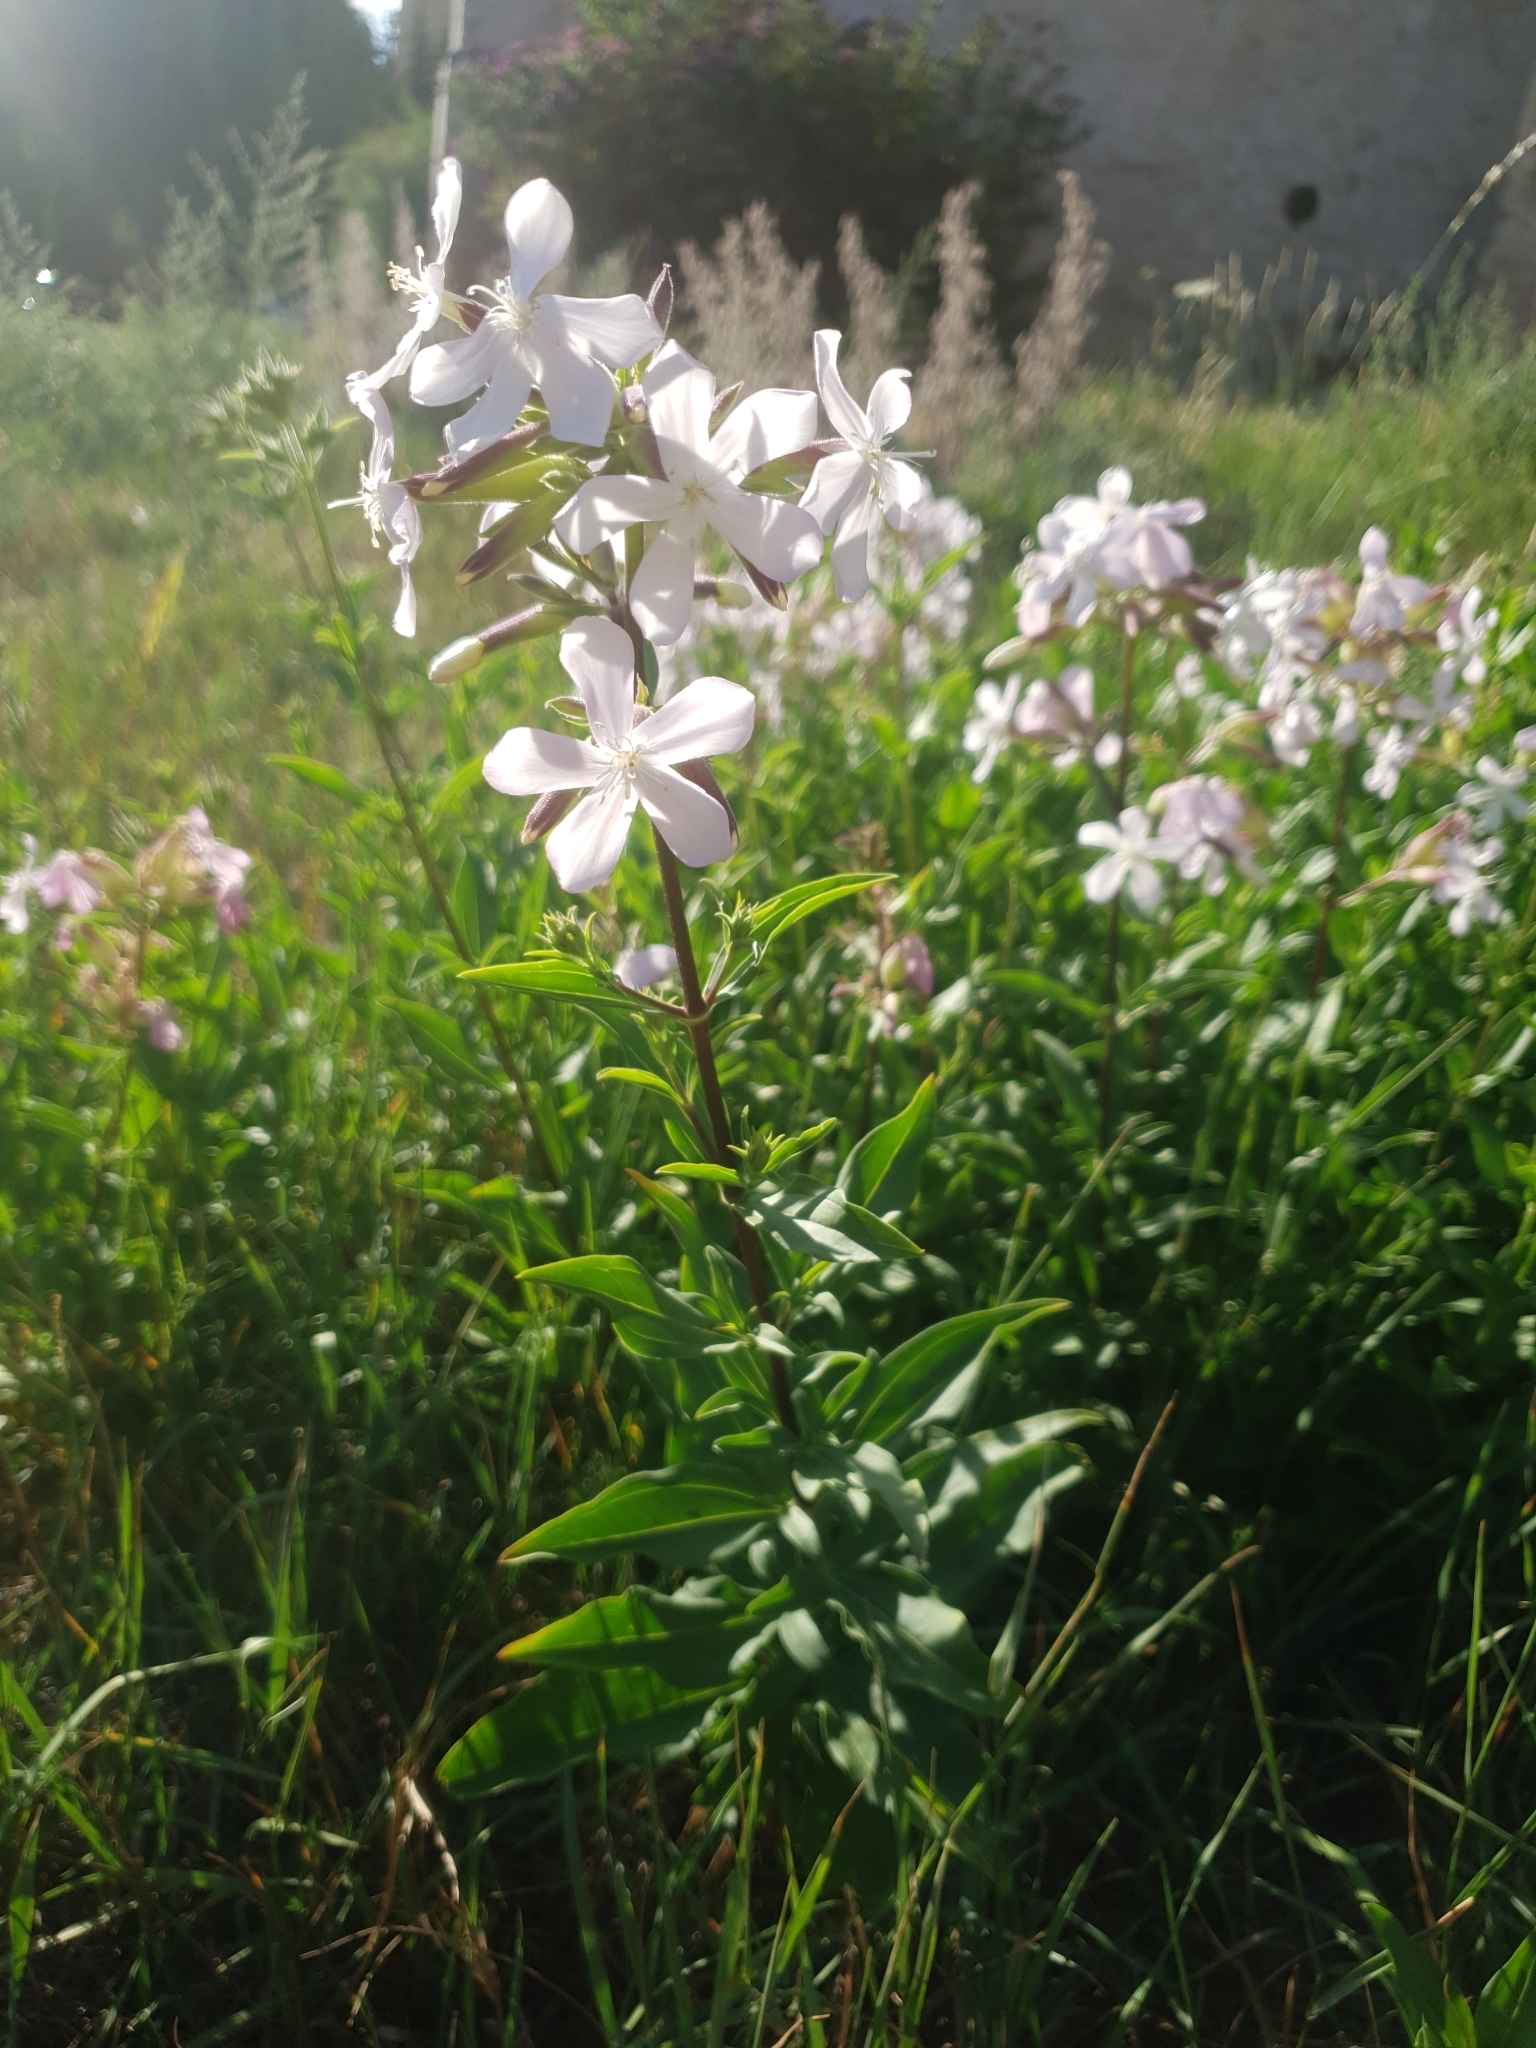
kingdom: Plantae
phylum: Tracheophyta
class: Magnoliopsida
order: Caryophyllales
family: Caryophyllaceae
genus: Saponaria
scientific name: Saponaria officinalis
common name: Soapwort
